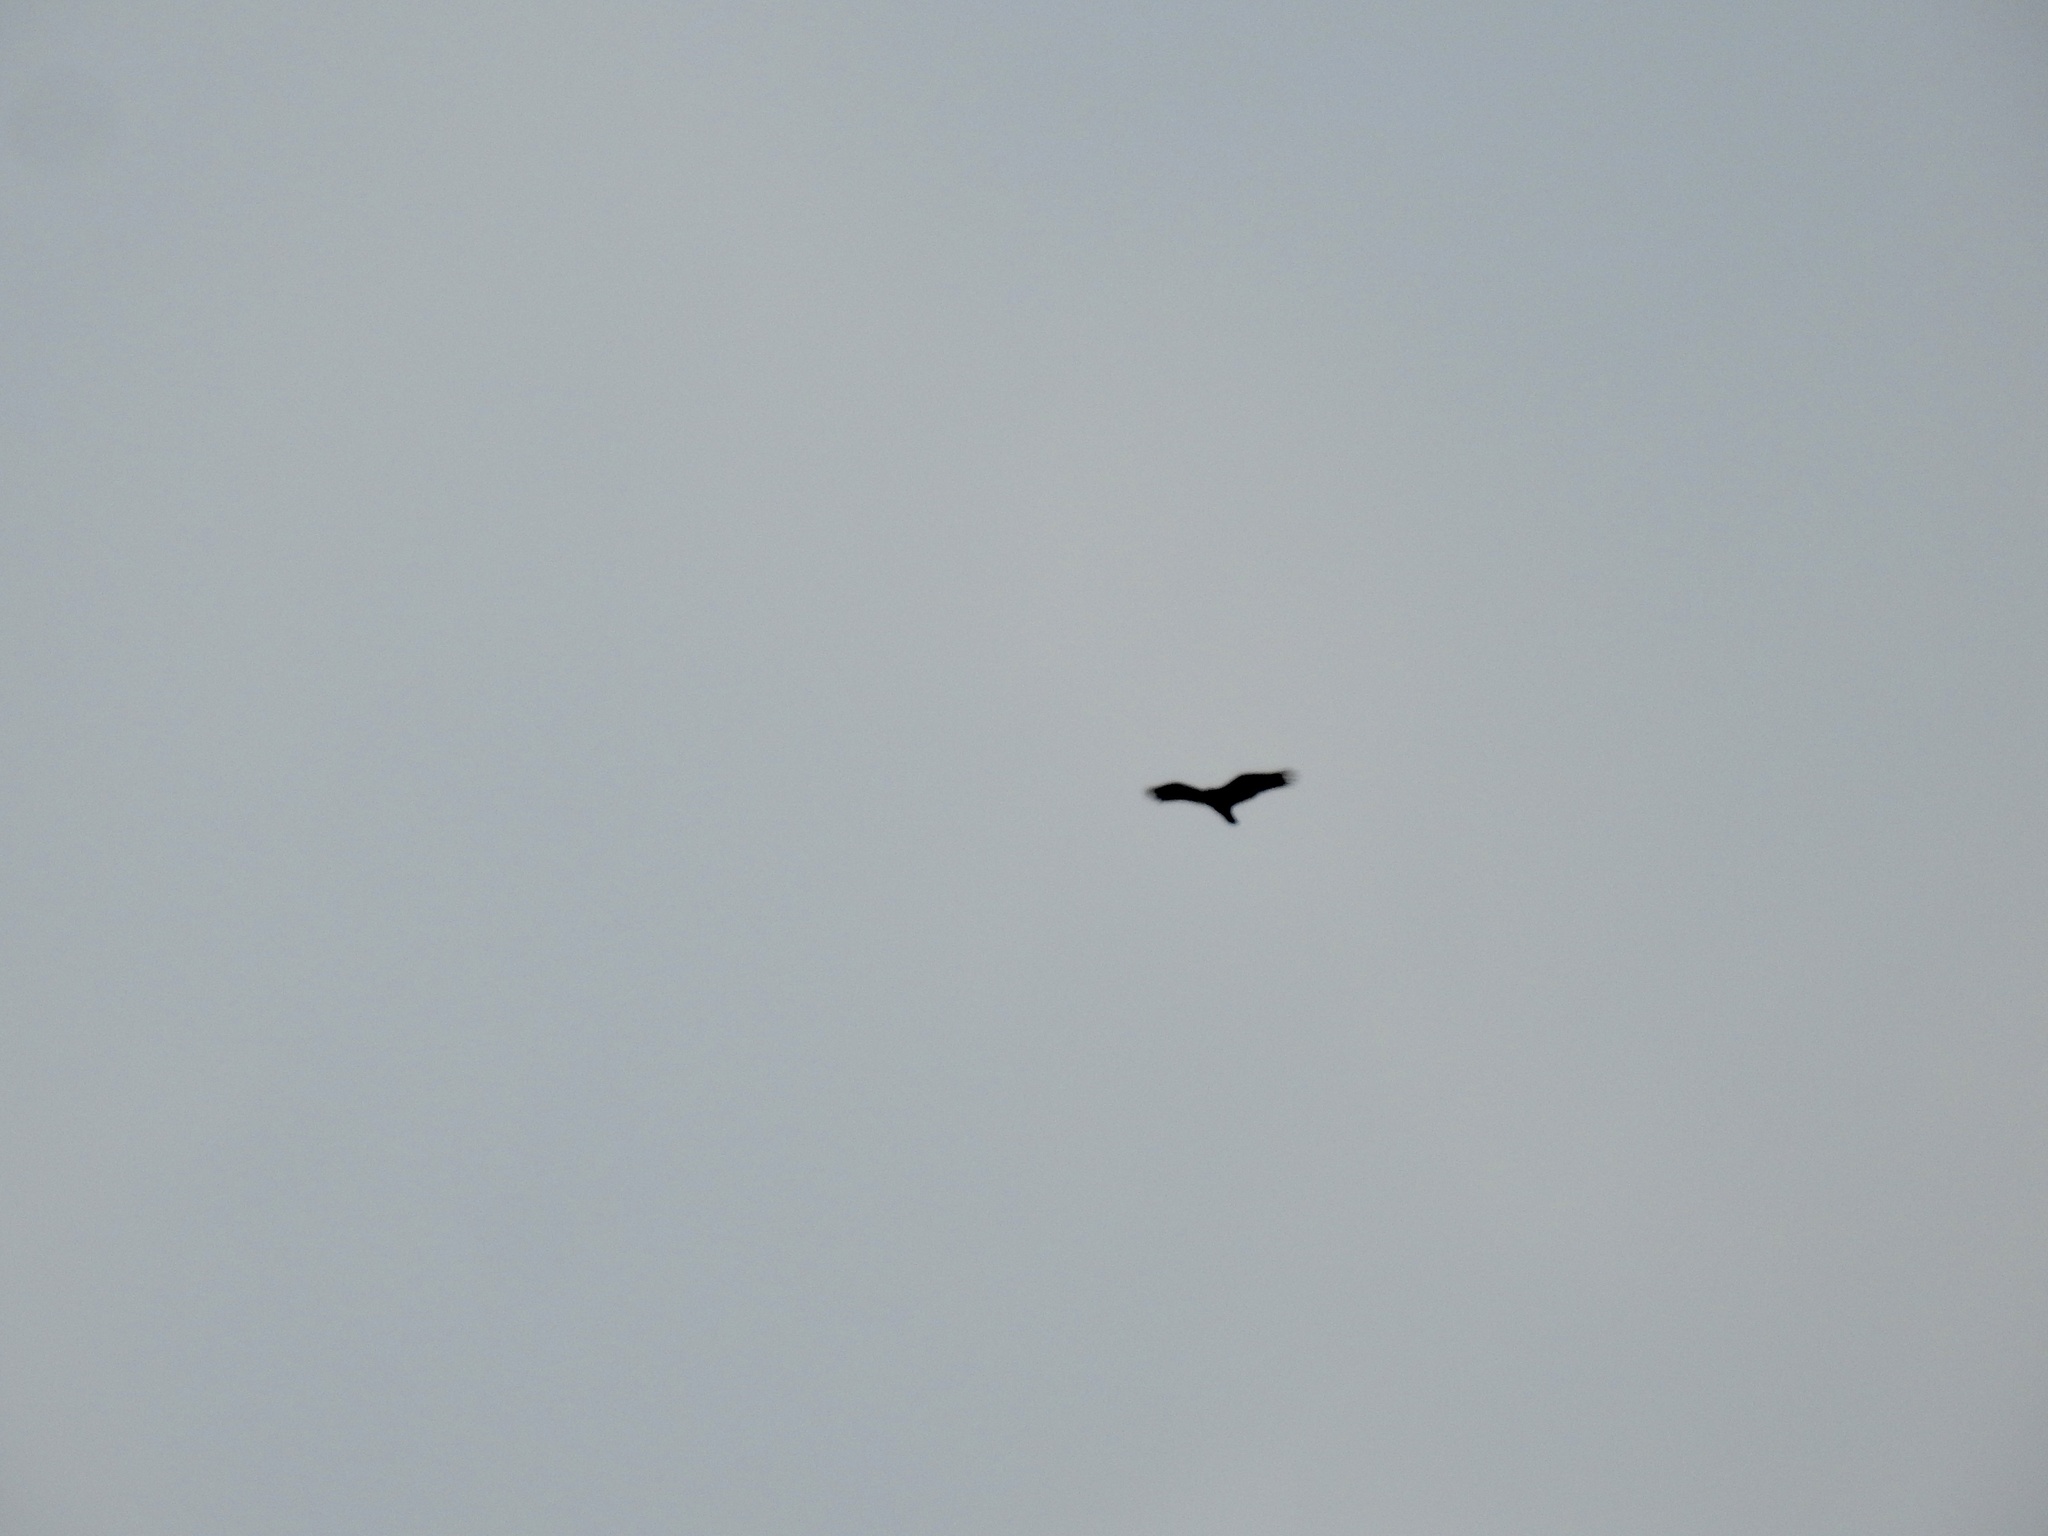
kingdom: Animalia
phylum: Chordata
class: Aves
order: Accipitriformes
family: Cathartidae
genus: Cathartes
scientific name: Cathartes aura
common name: Turkey vulture
